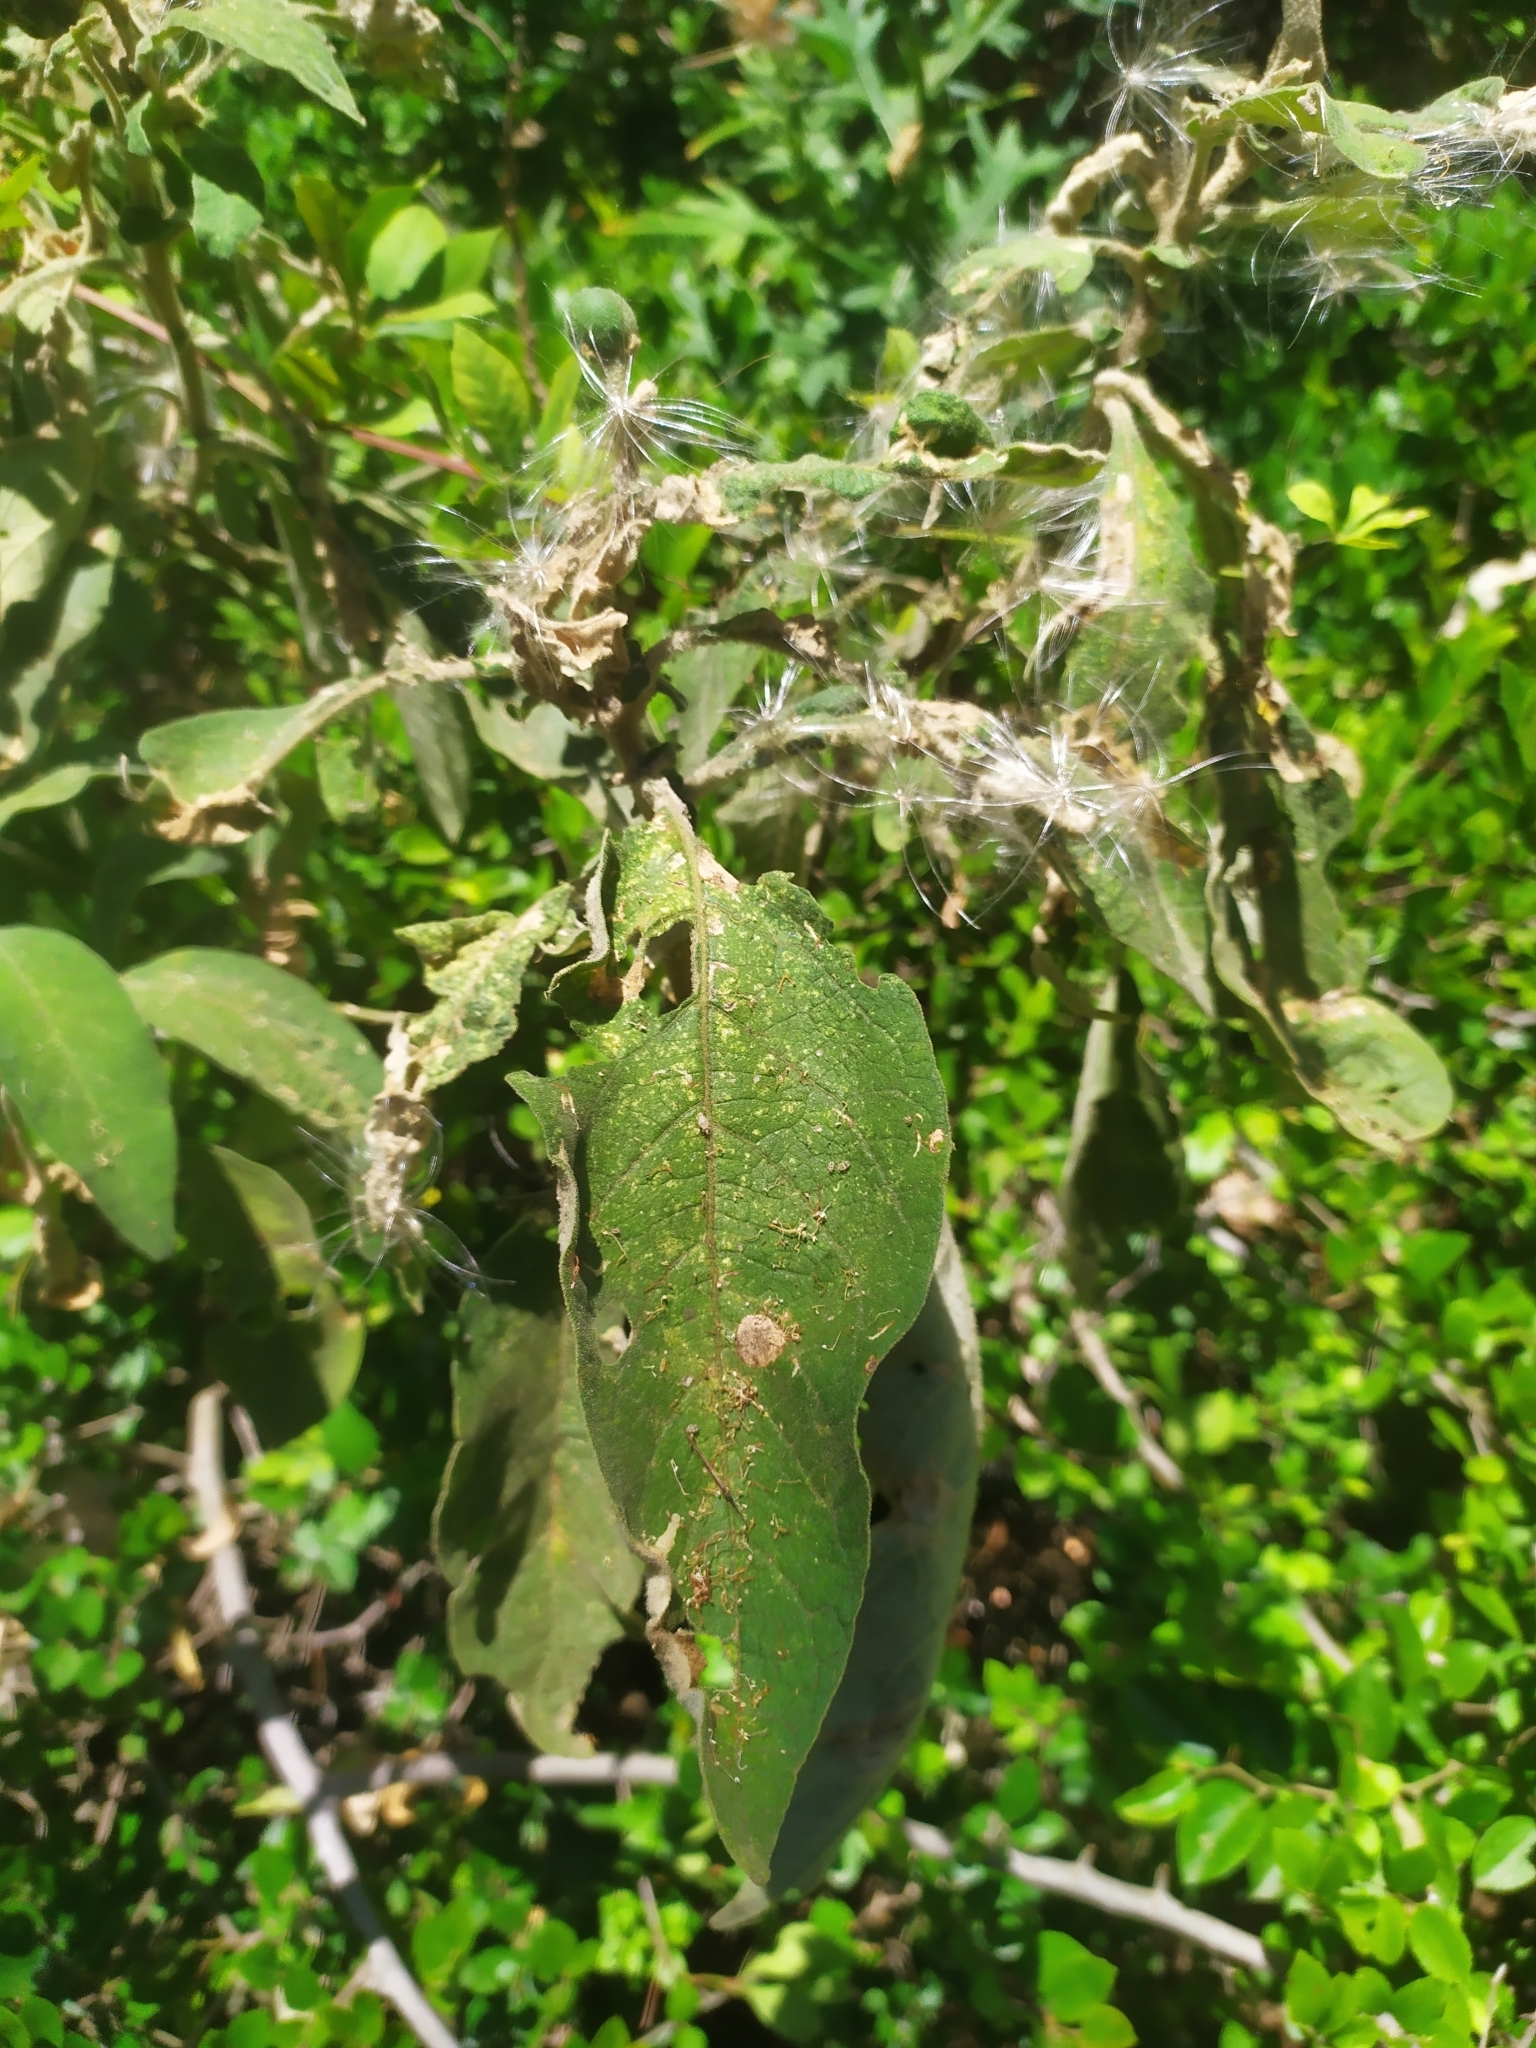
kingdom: Plantae
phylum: Tracheophyta
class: Magnoliopsida
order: Solanales
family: Solanaceae
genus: Solanum
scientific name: Solanum mauritianum
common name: Earleaf nightshade
